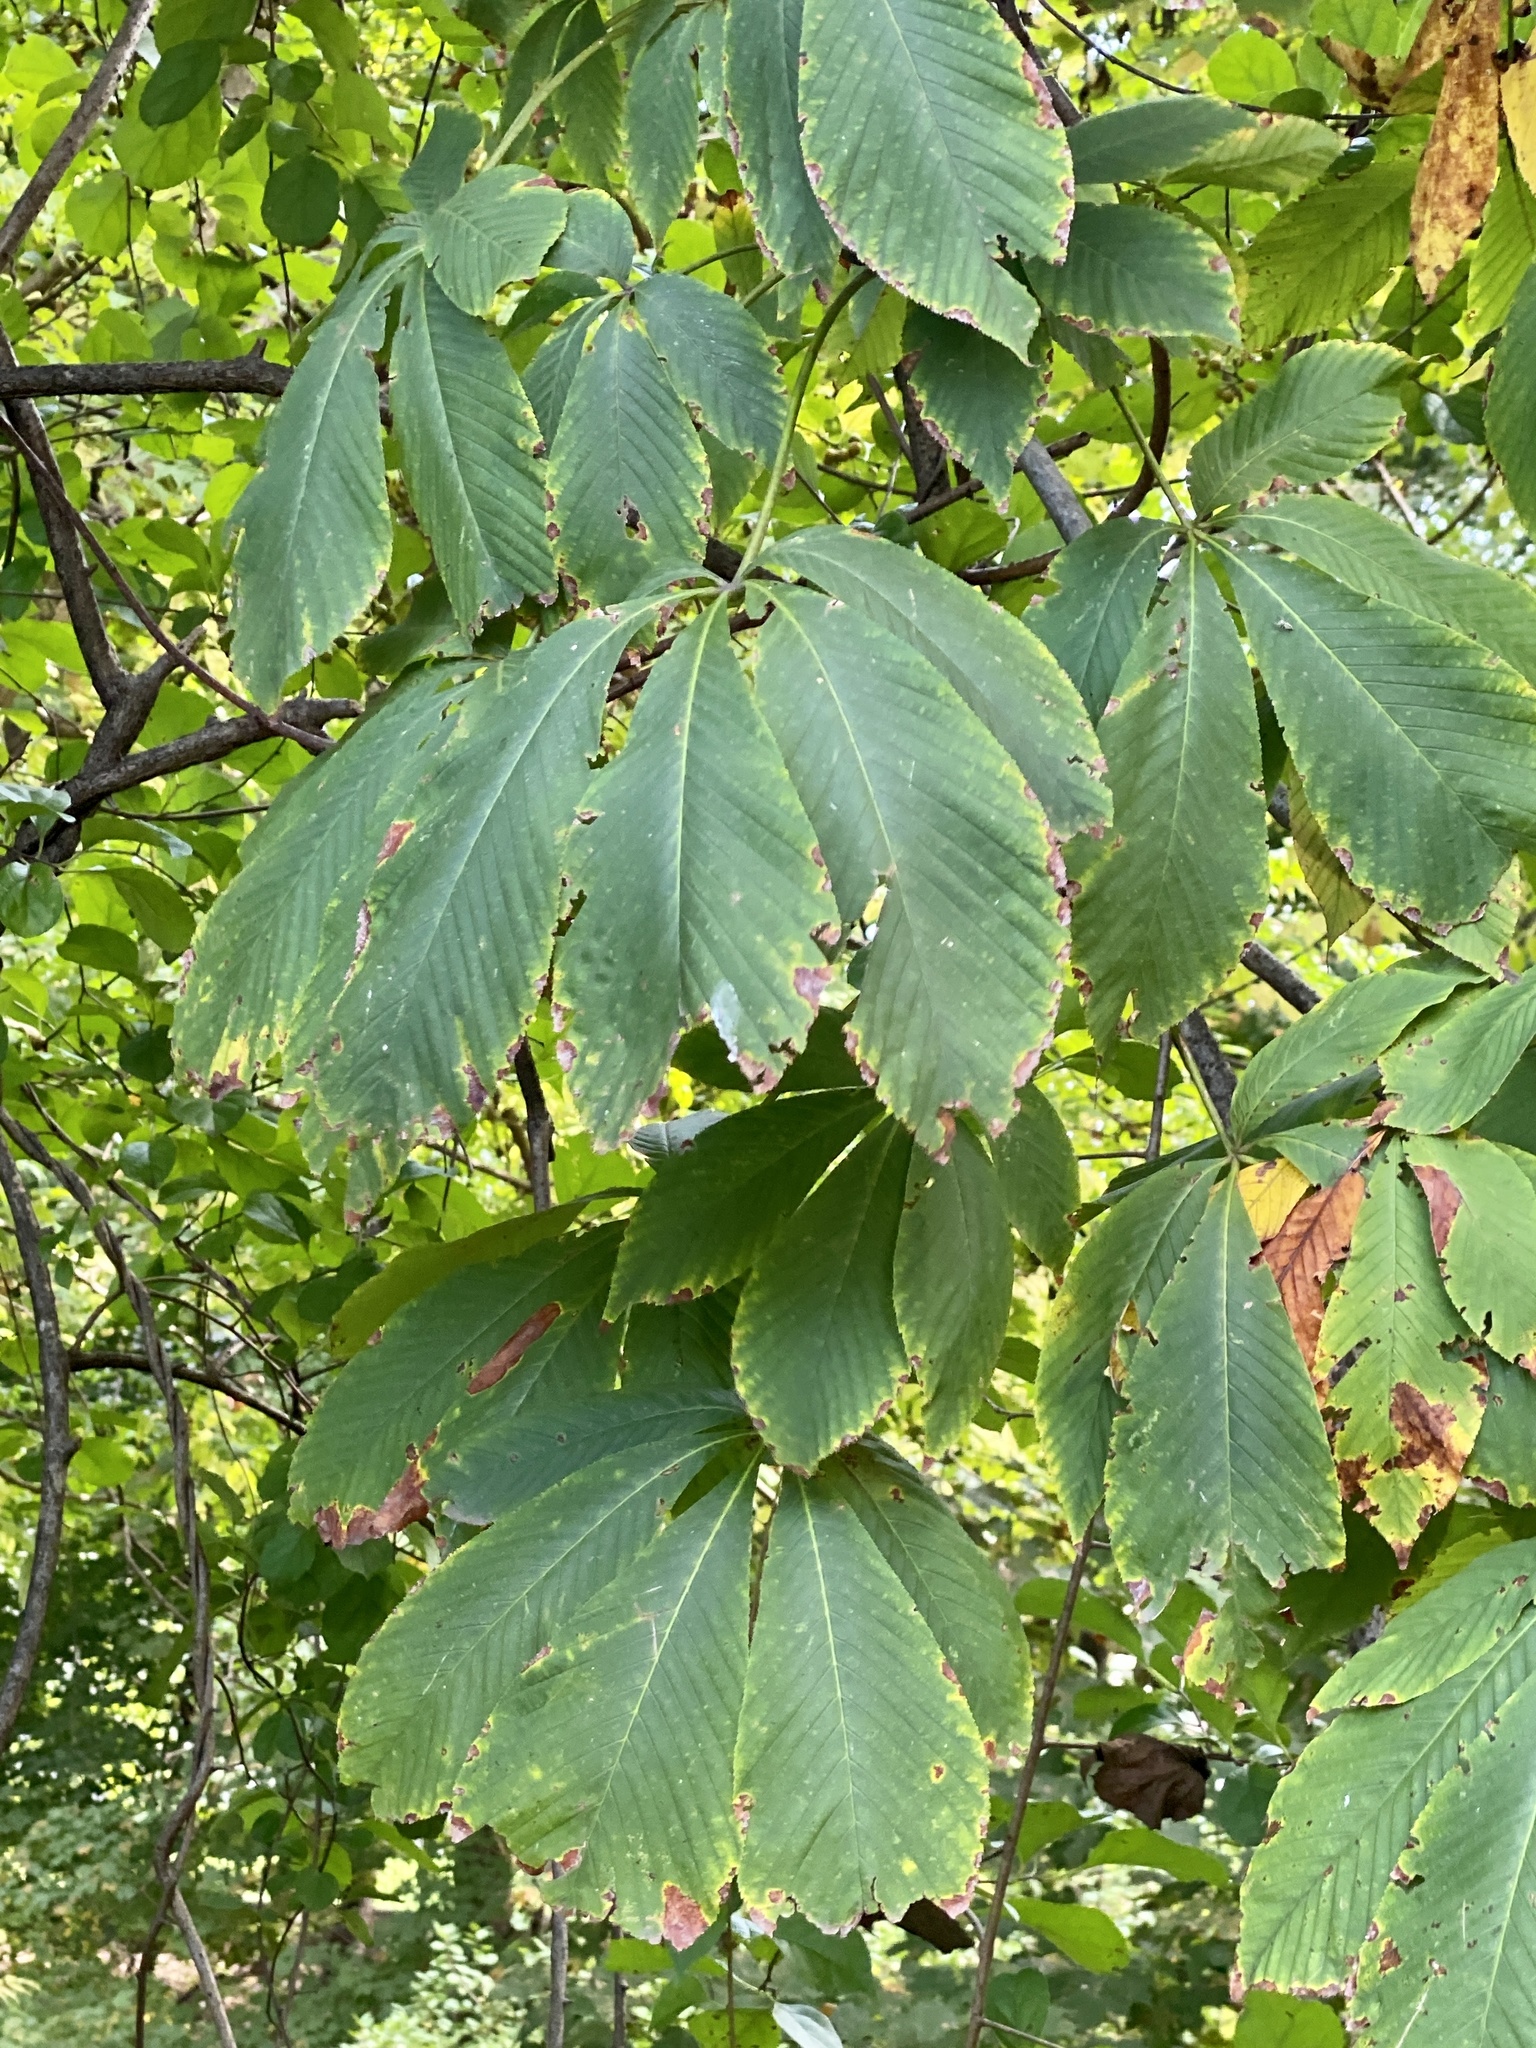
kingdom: Plantae
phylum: Tracheophyta
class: Magnoliopsida
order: Sapindales
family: Sapindaceae
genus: Aesculus
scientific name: Aesculus flava
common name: Yellow buckeye
